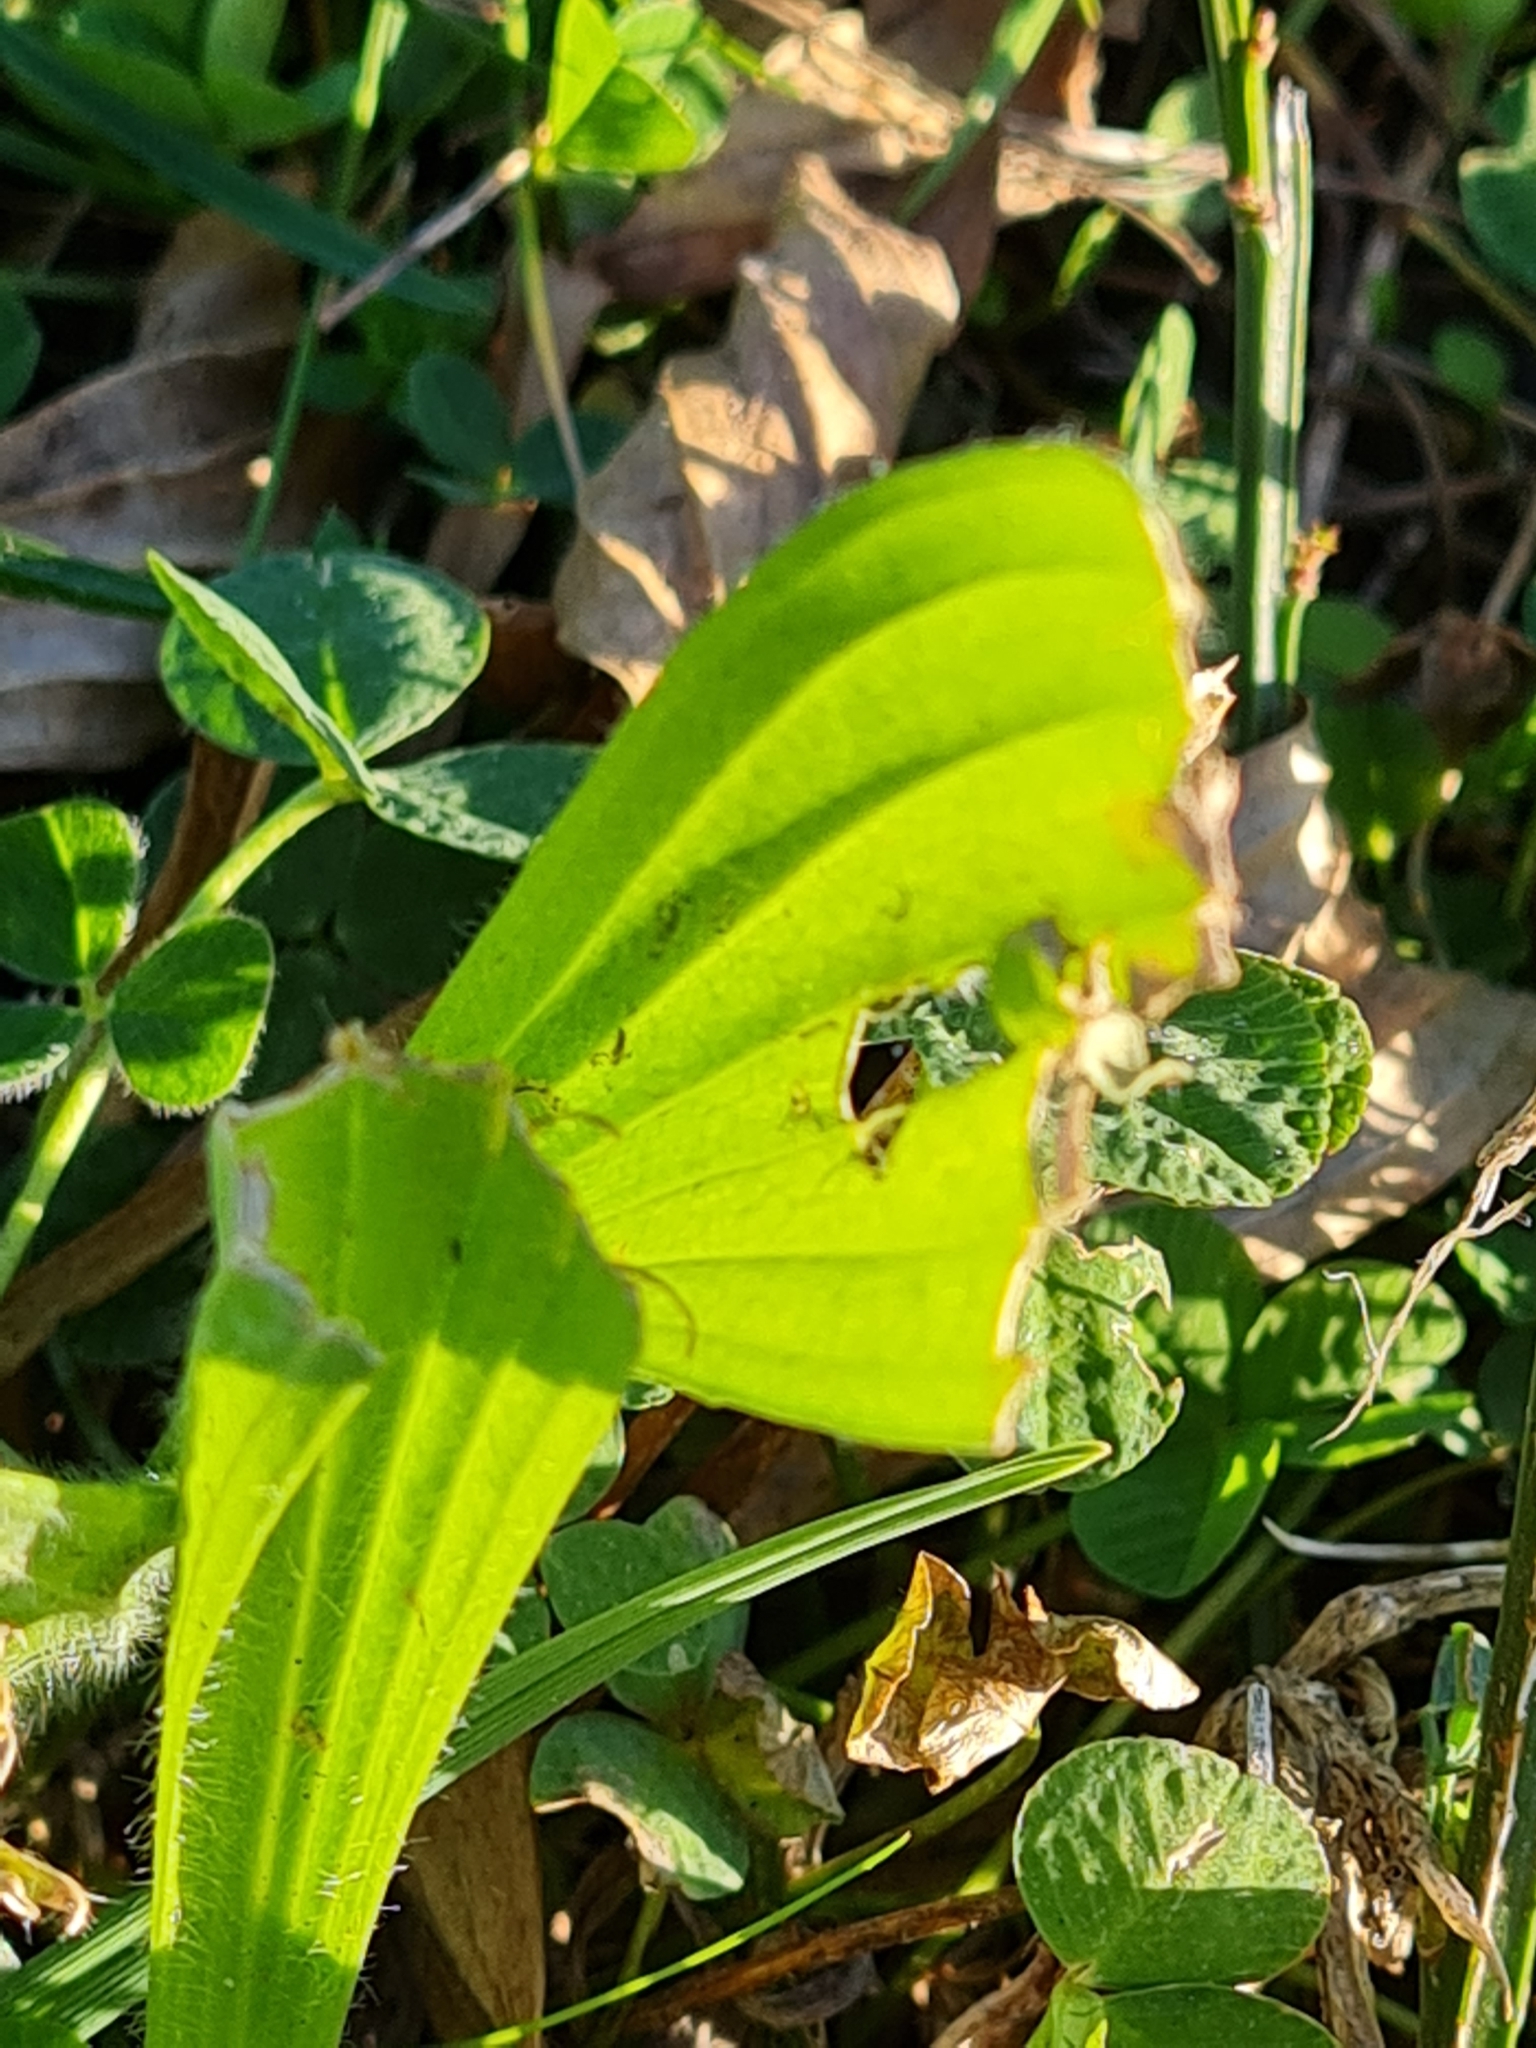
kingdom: Plantae
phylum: Tracheophyta
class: Magnoliopsida
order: Lamiales
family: Plantaginaceae
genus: Plantago
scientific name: Plantago australis
